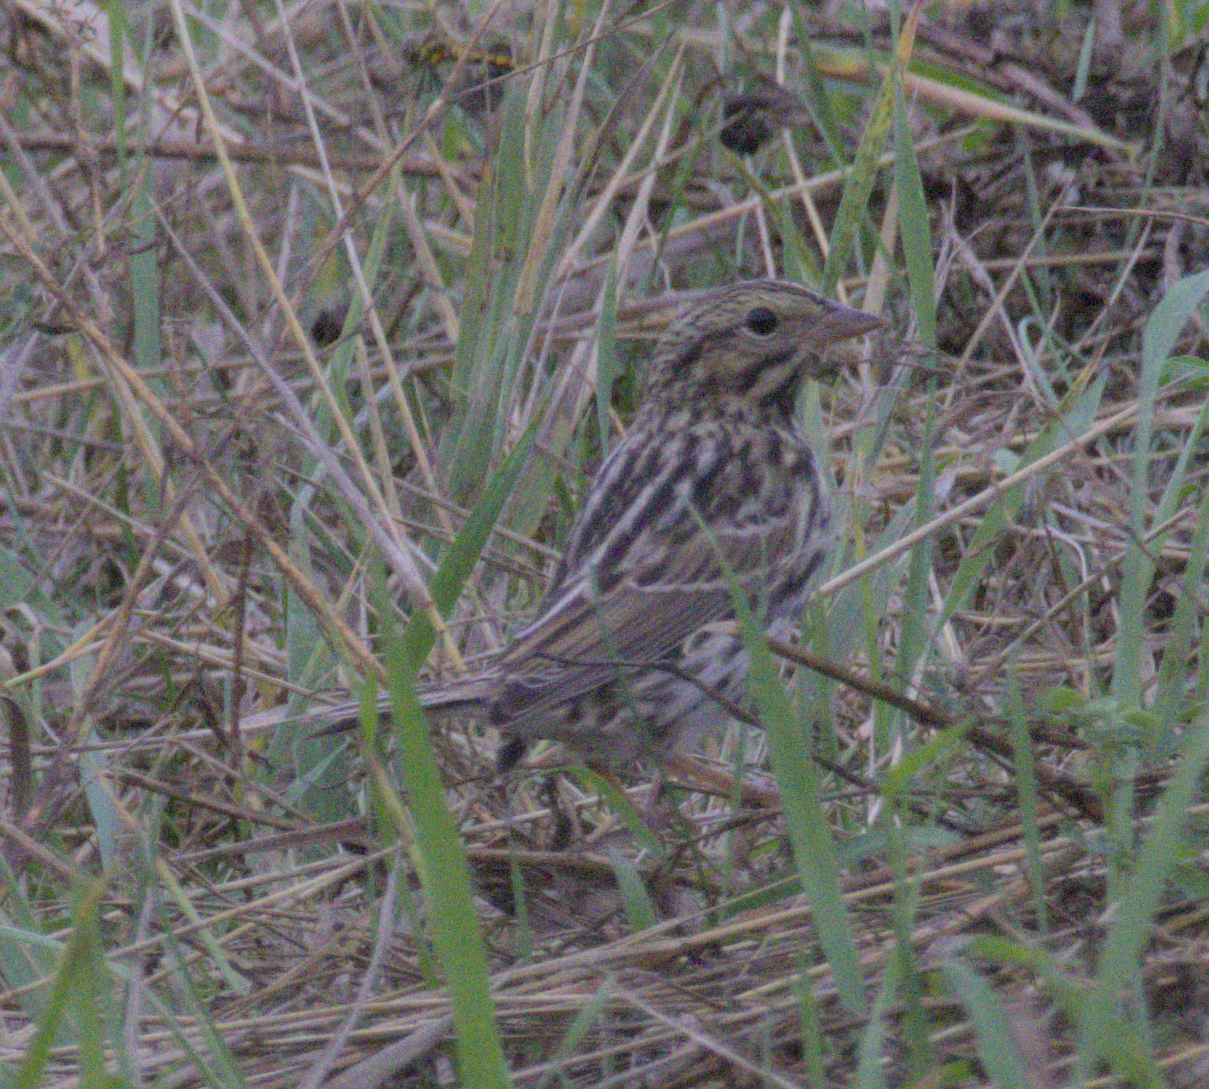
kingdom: Animalia
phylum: Chordata
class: Aves
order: Passeriformes
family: Passerellidae
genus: Passerculus
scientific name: Passerculus sandwichensis
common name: Savannah sparrow
